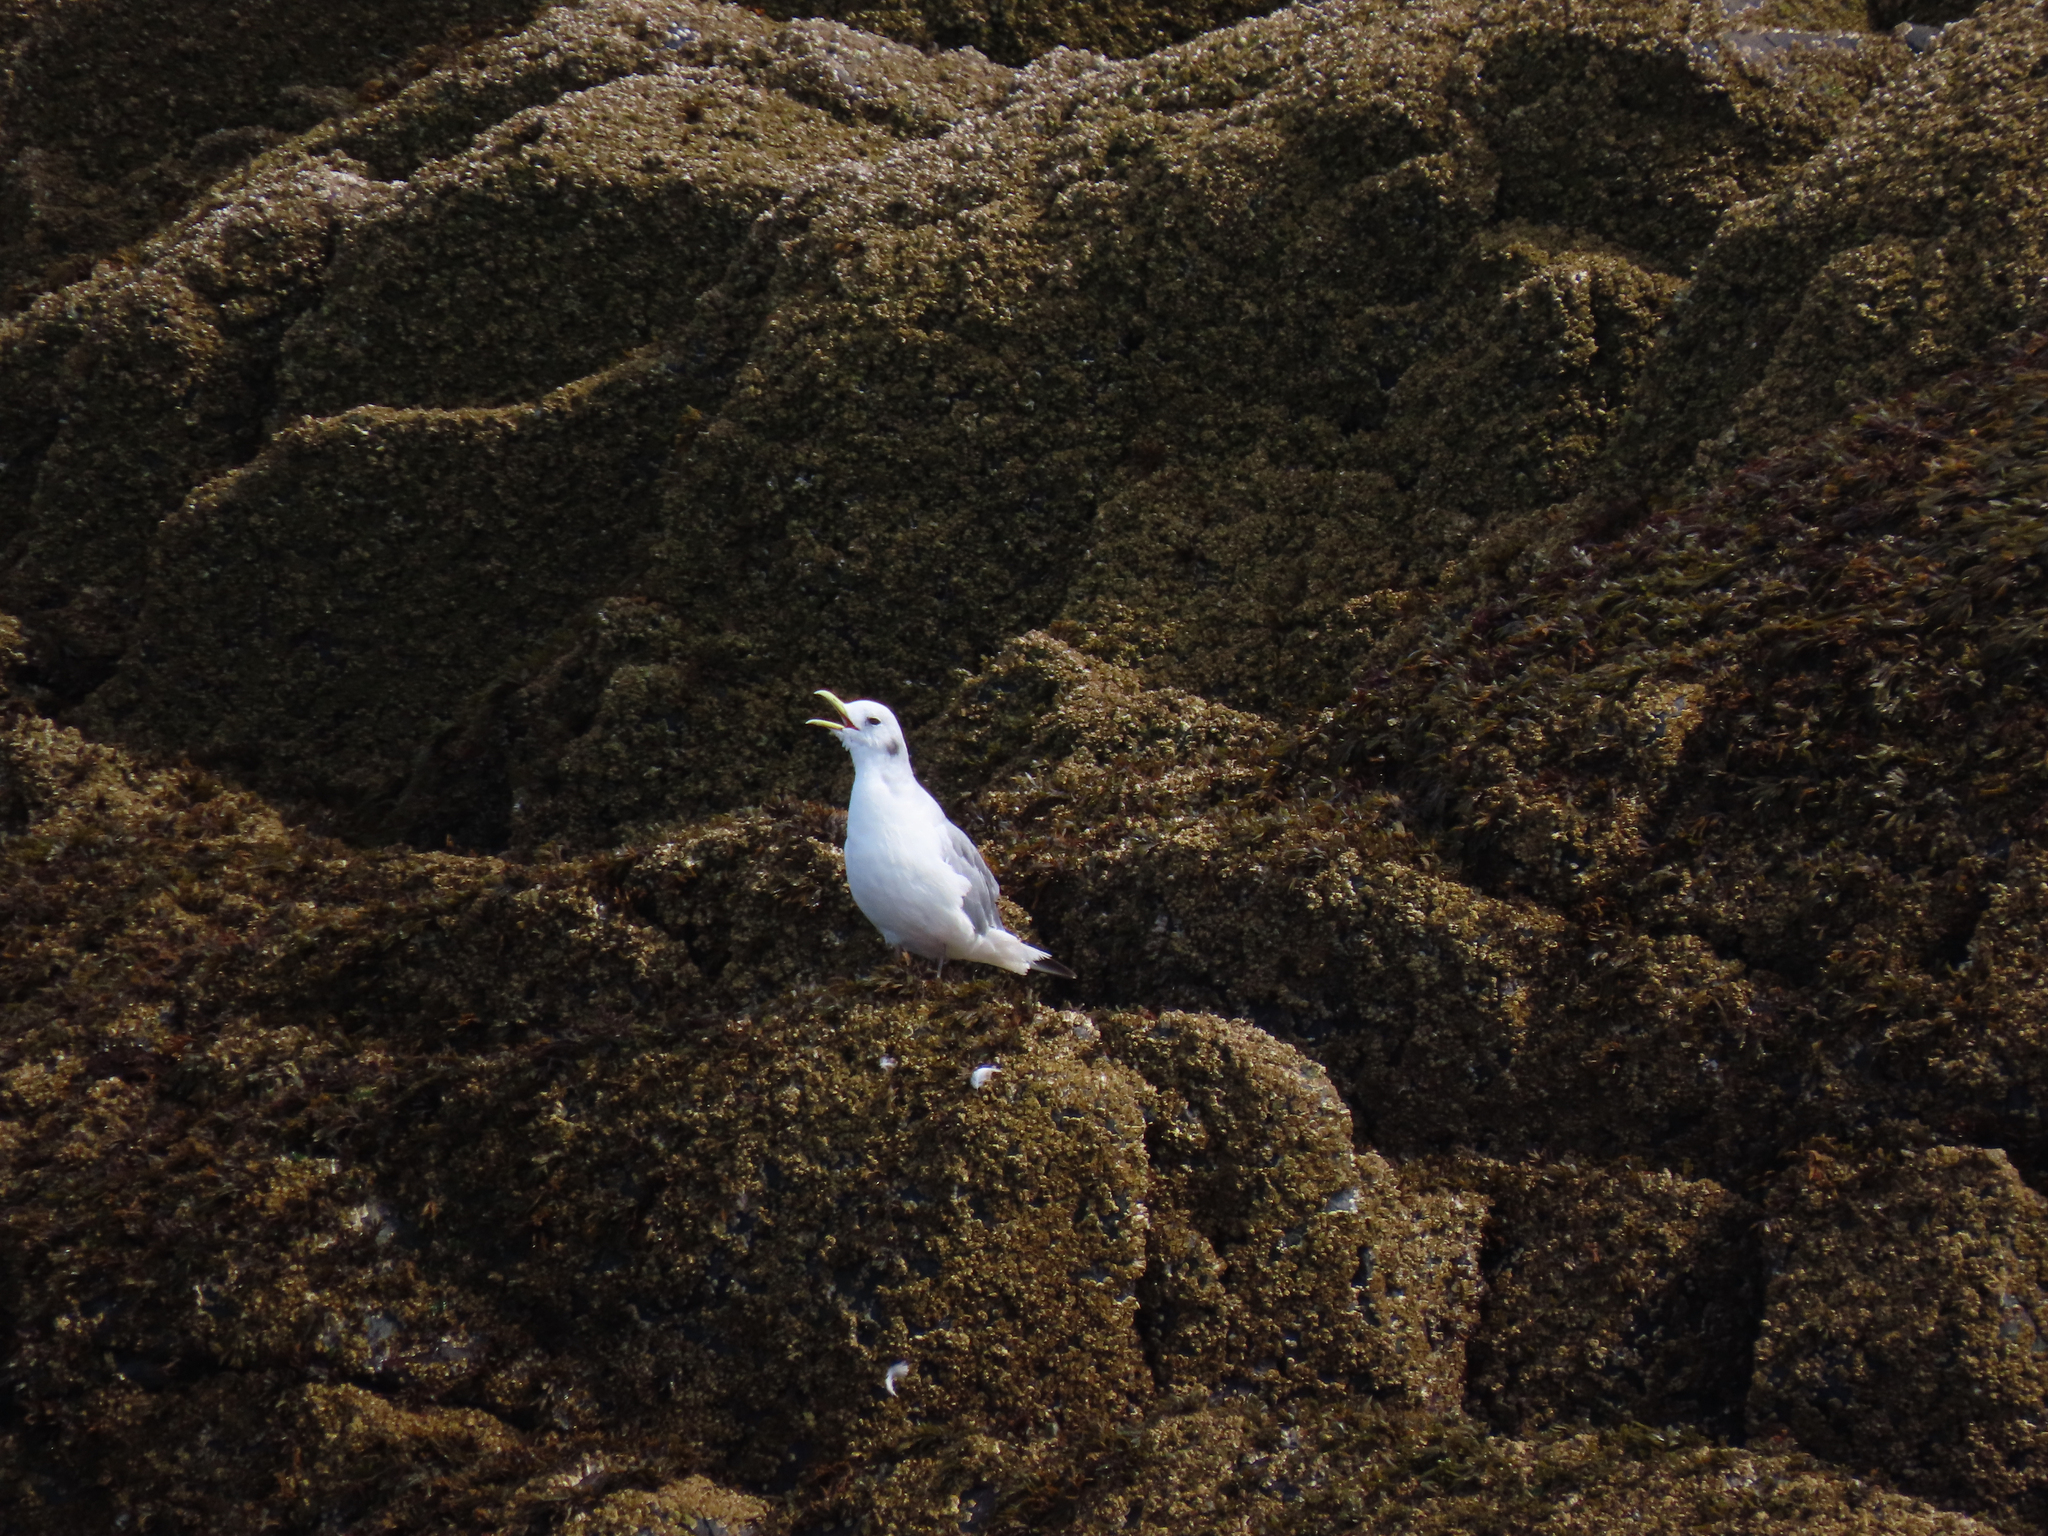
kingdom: Animalia
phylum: Chordata
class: Aves
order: Charadriiformes
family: Laridae
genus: Rissa
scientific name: Rissa tridactyla
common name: Black-legged kittiwake
